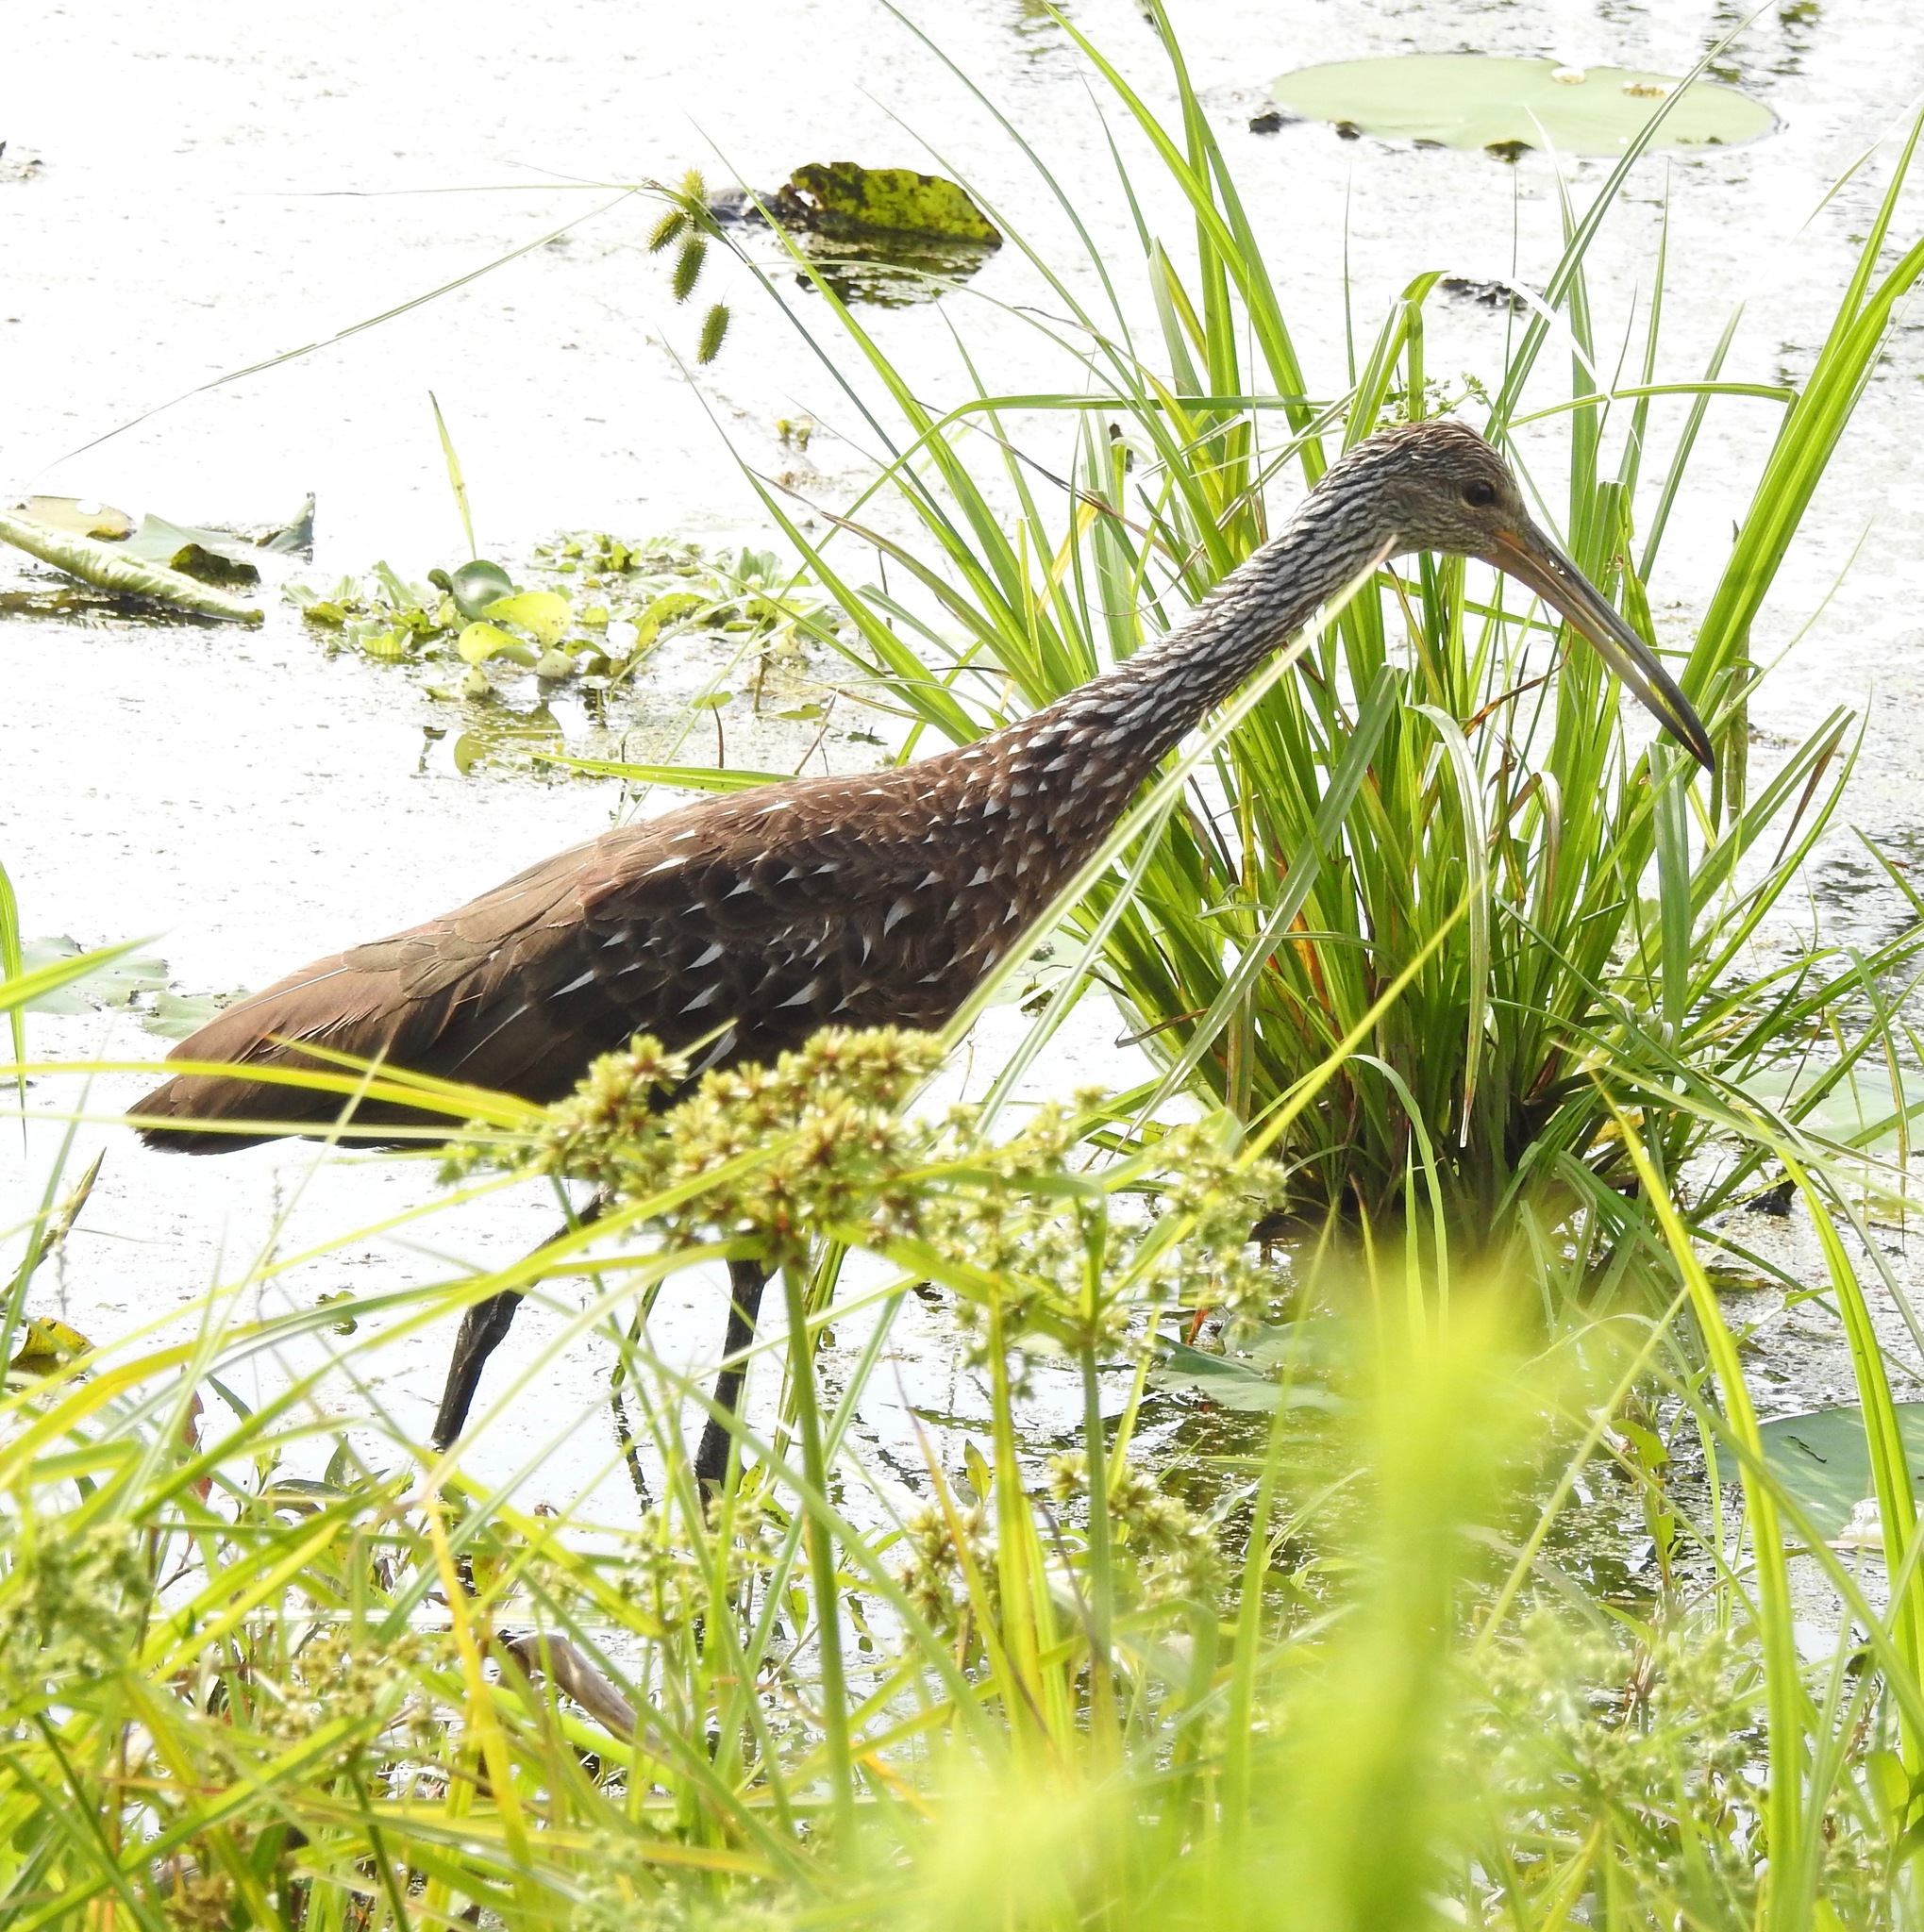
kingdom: Animalia
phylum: Chordata
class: Aves
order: Gruiformes
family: Aramidae
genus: Aramus
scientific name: Aramus guarauna
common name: Limpkin
